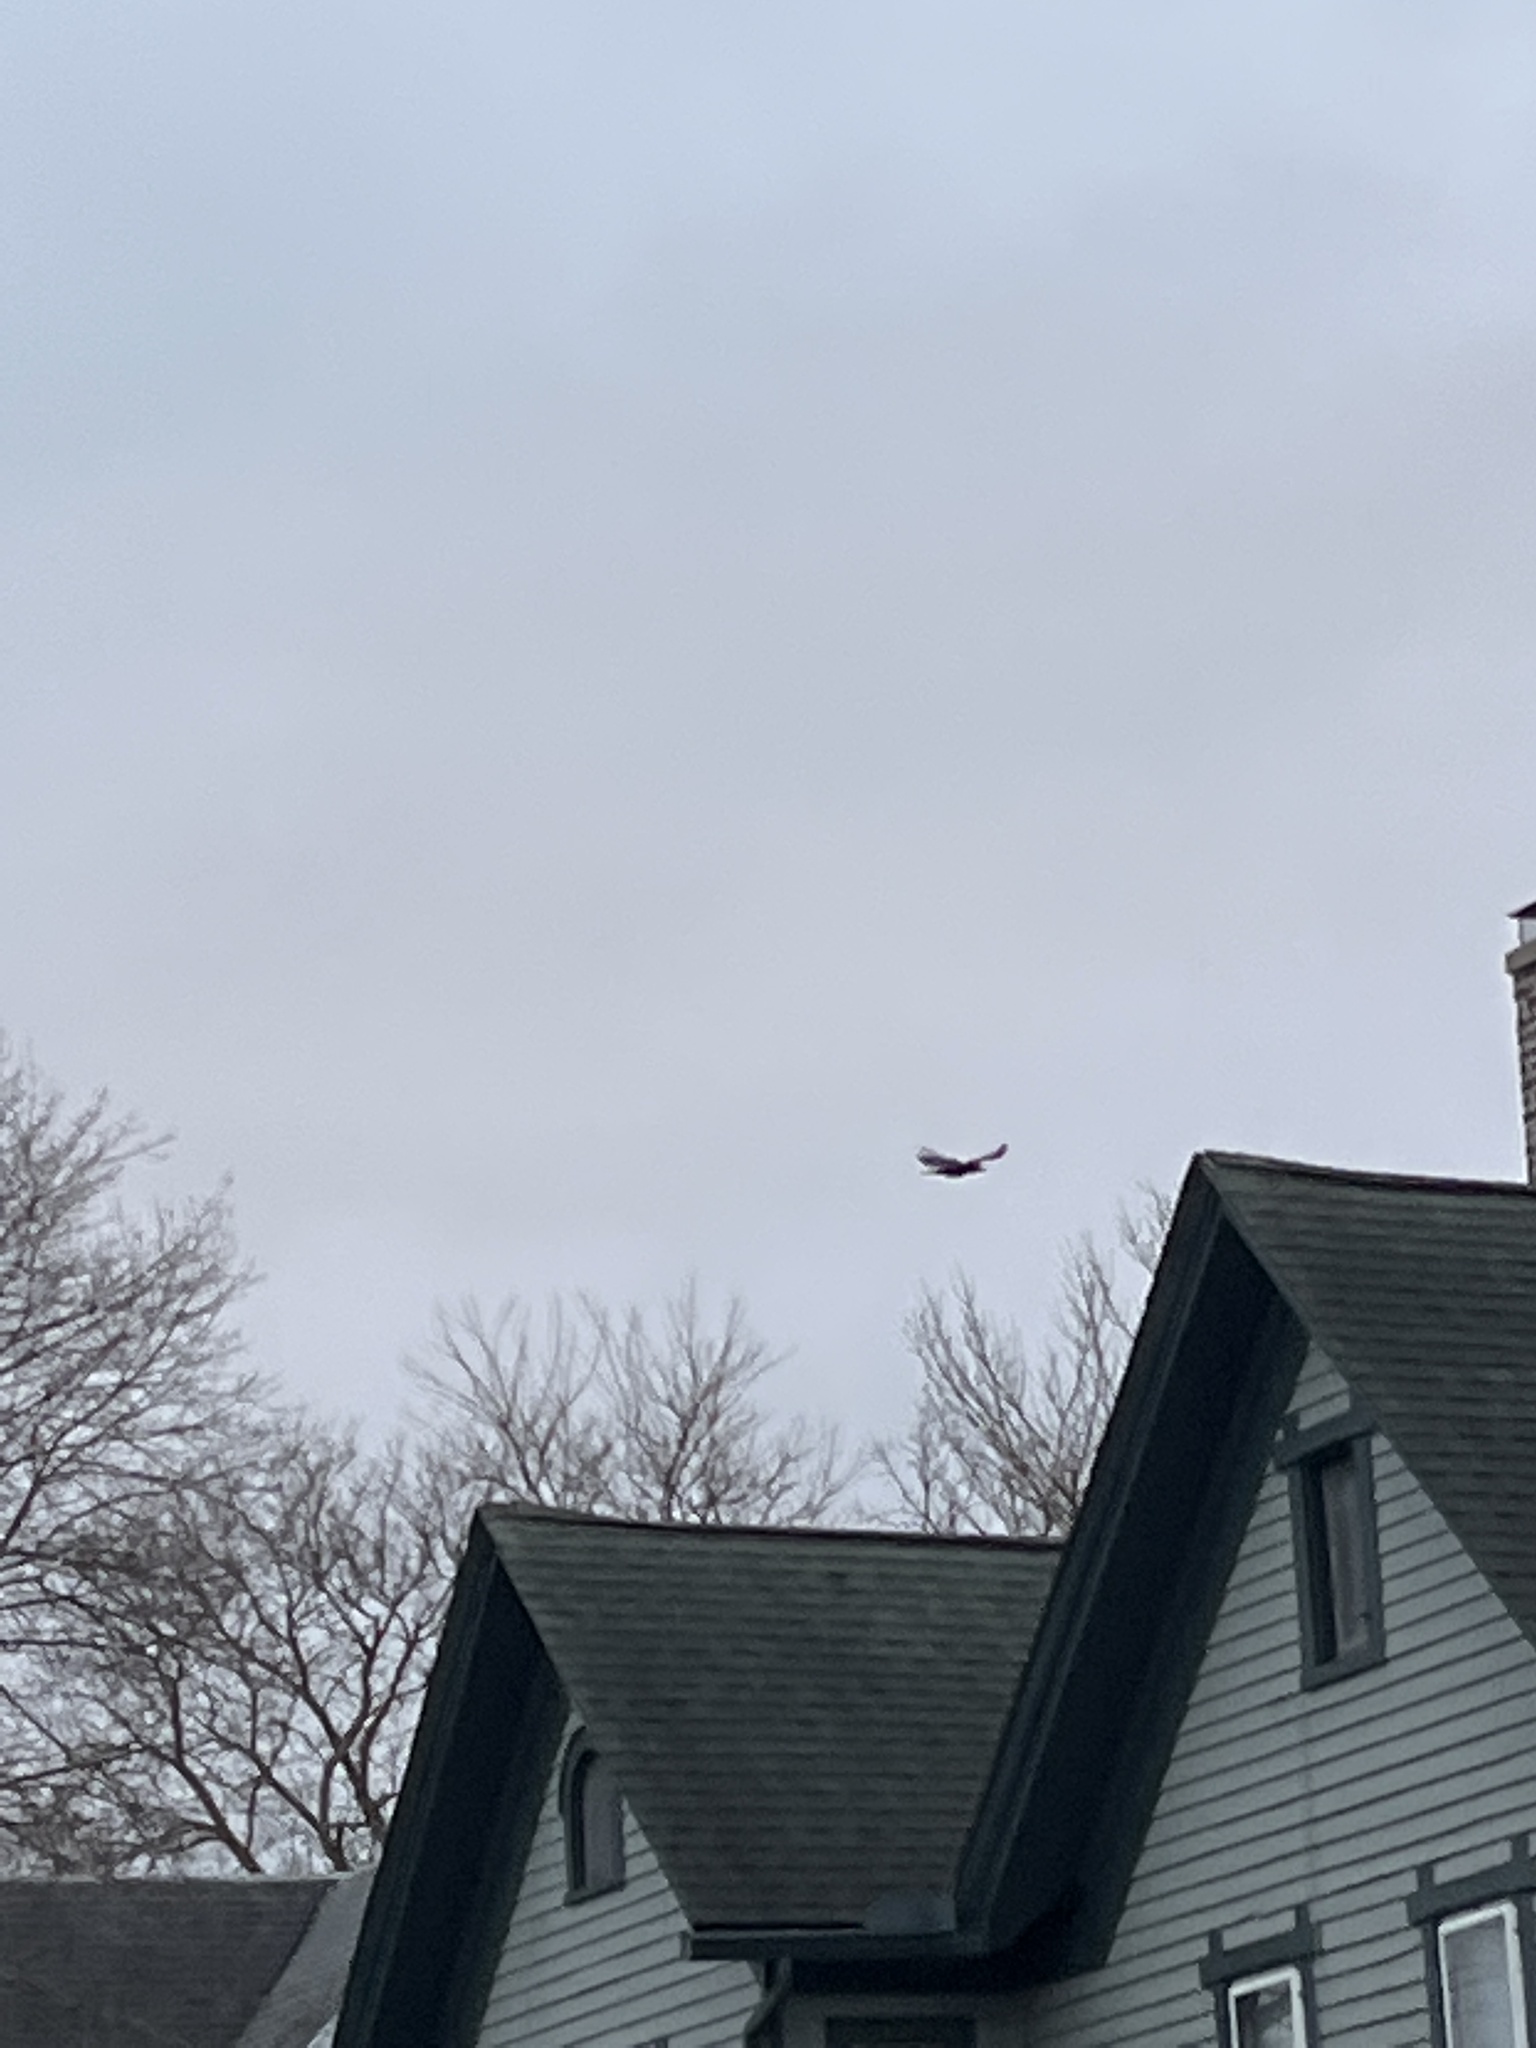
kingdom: Animalia
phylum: Chordata
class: Aves
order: Passeriformes
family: Corvidae
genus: Corvus
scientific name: Corvus brachyrhynchos
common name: American crow
